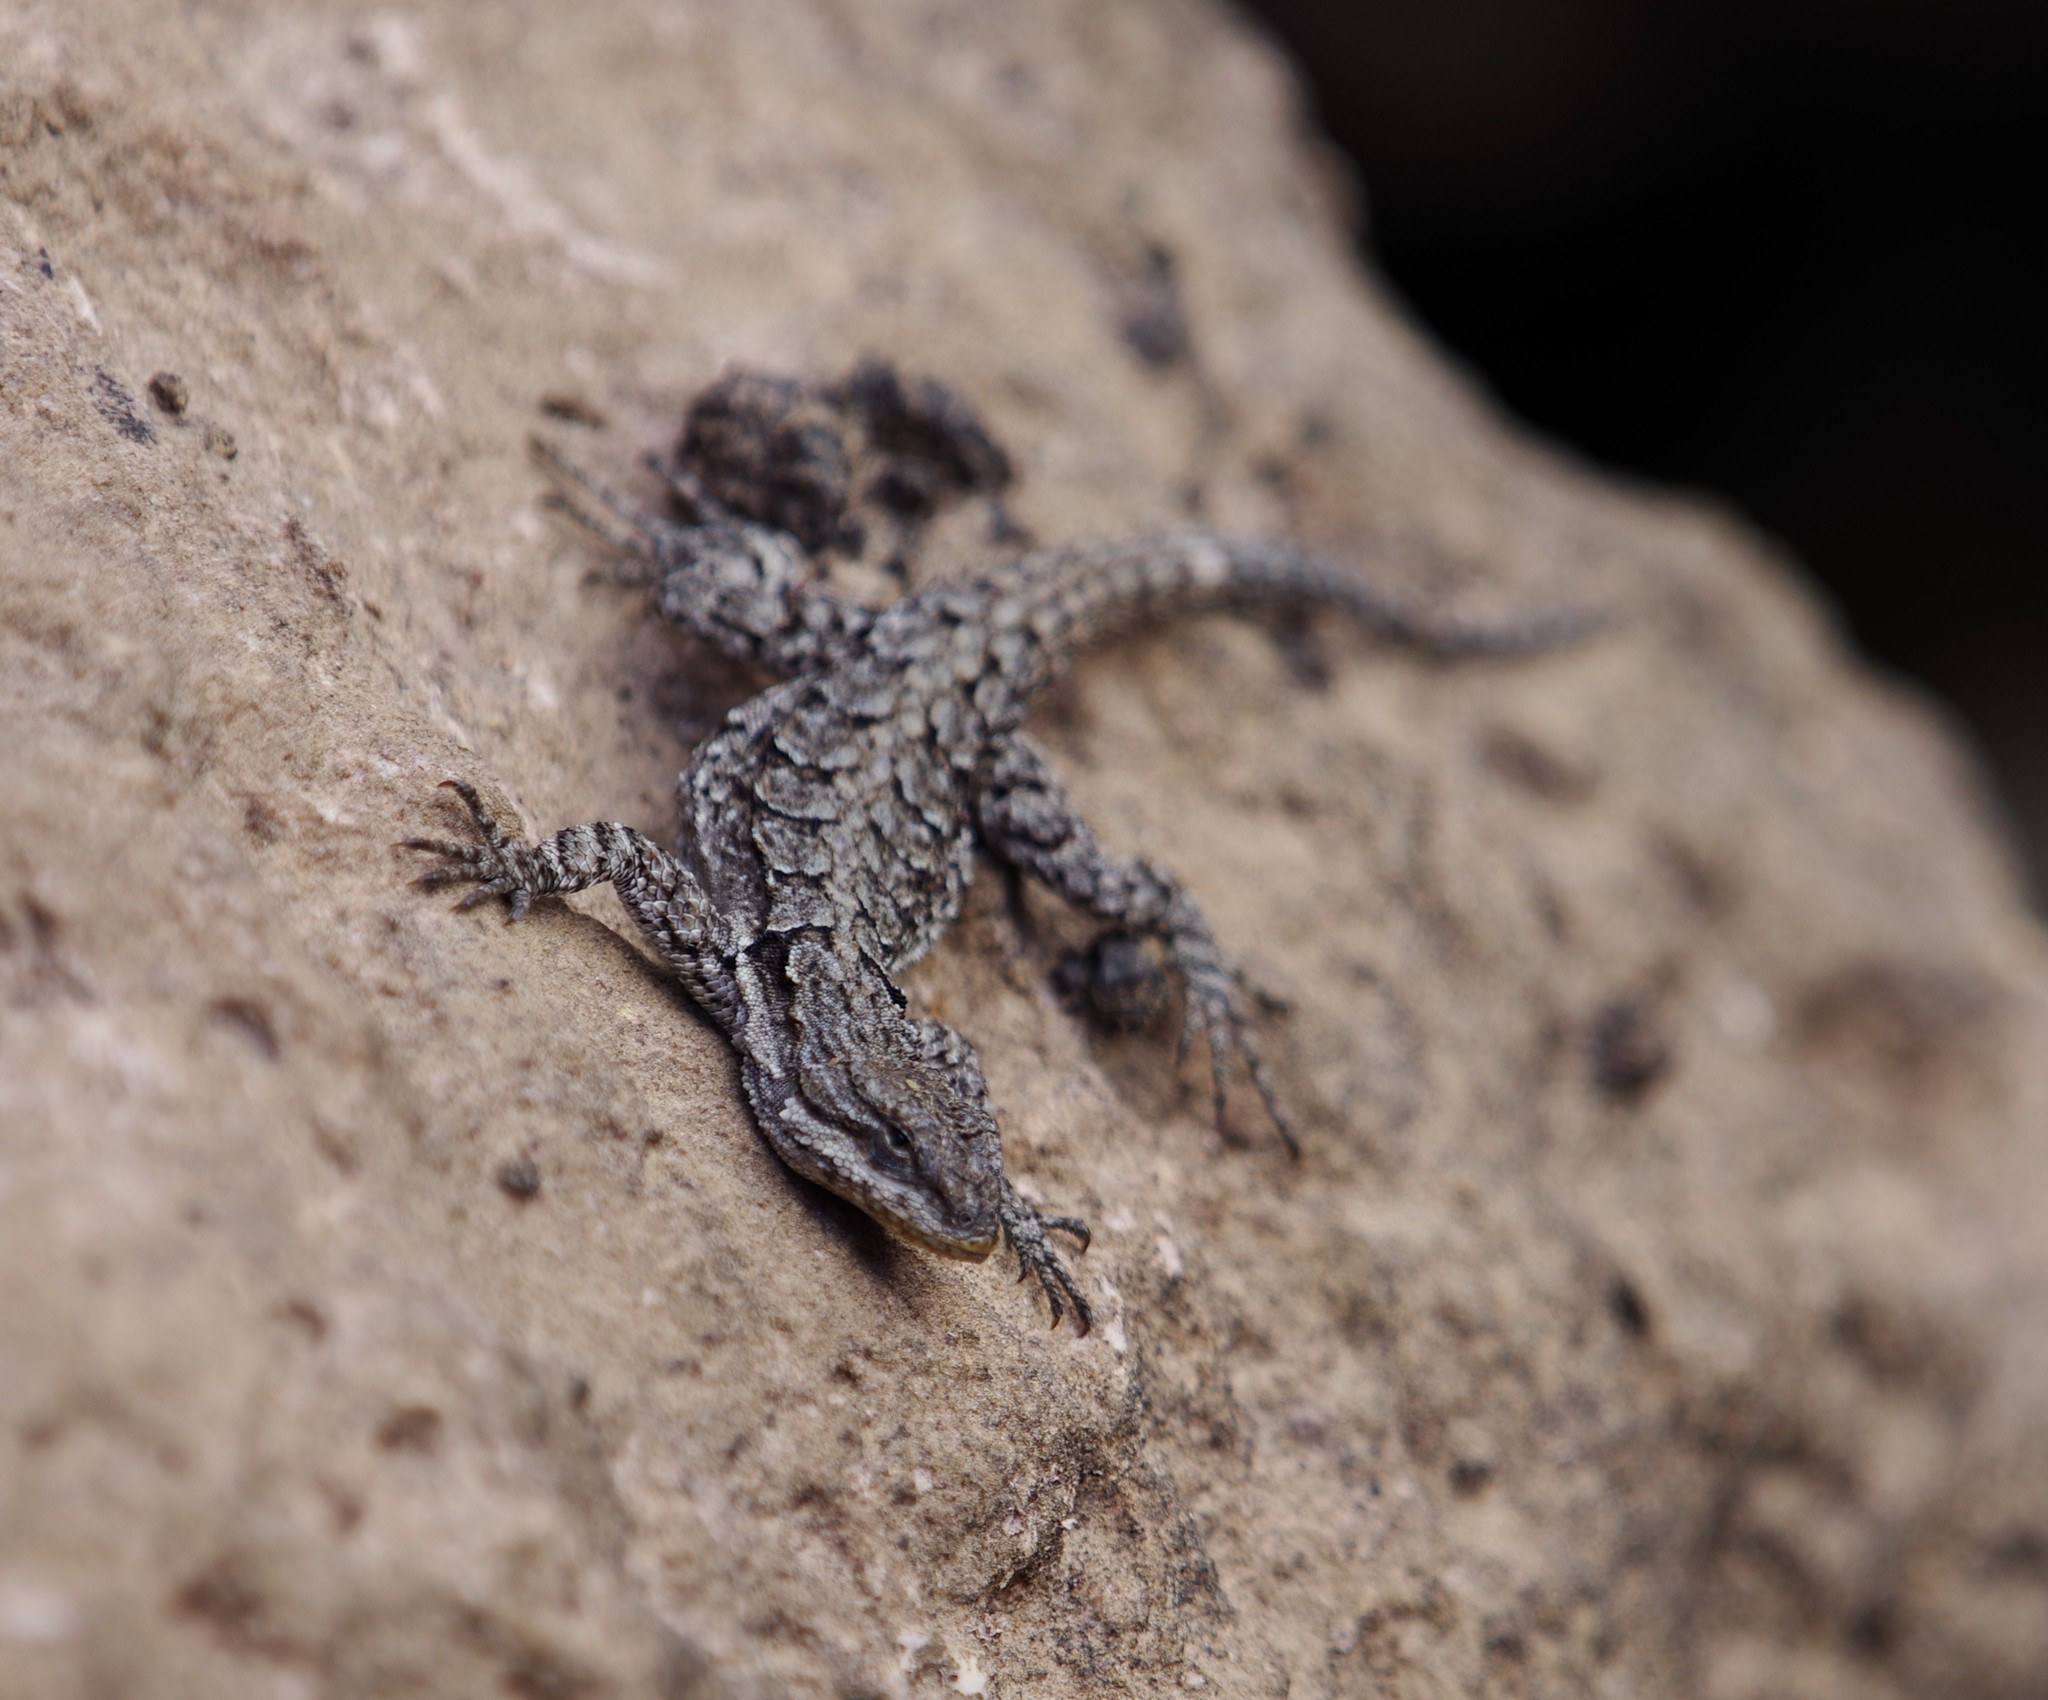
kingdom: Animalia
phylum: Chordata
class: Squamata
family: Phrynosomatidae
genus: Urosaurus
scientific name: Urosaurus ornatus
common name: Ornate tree lizard
